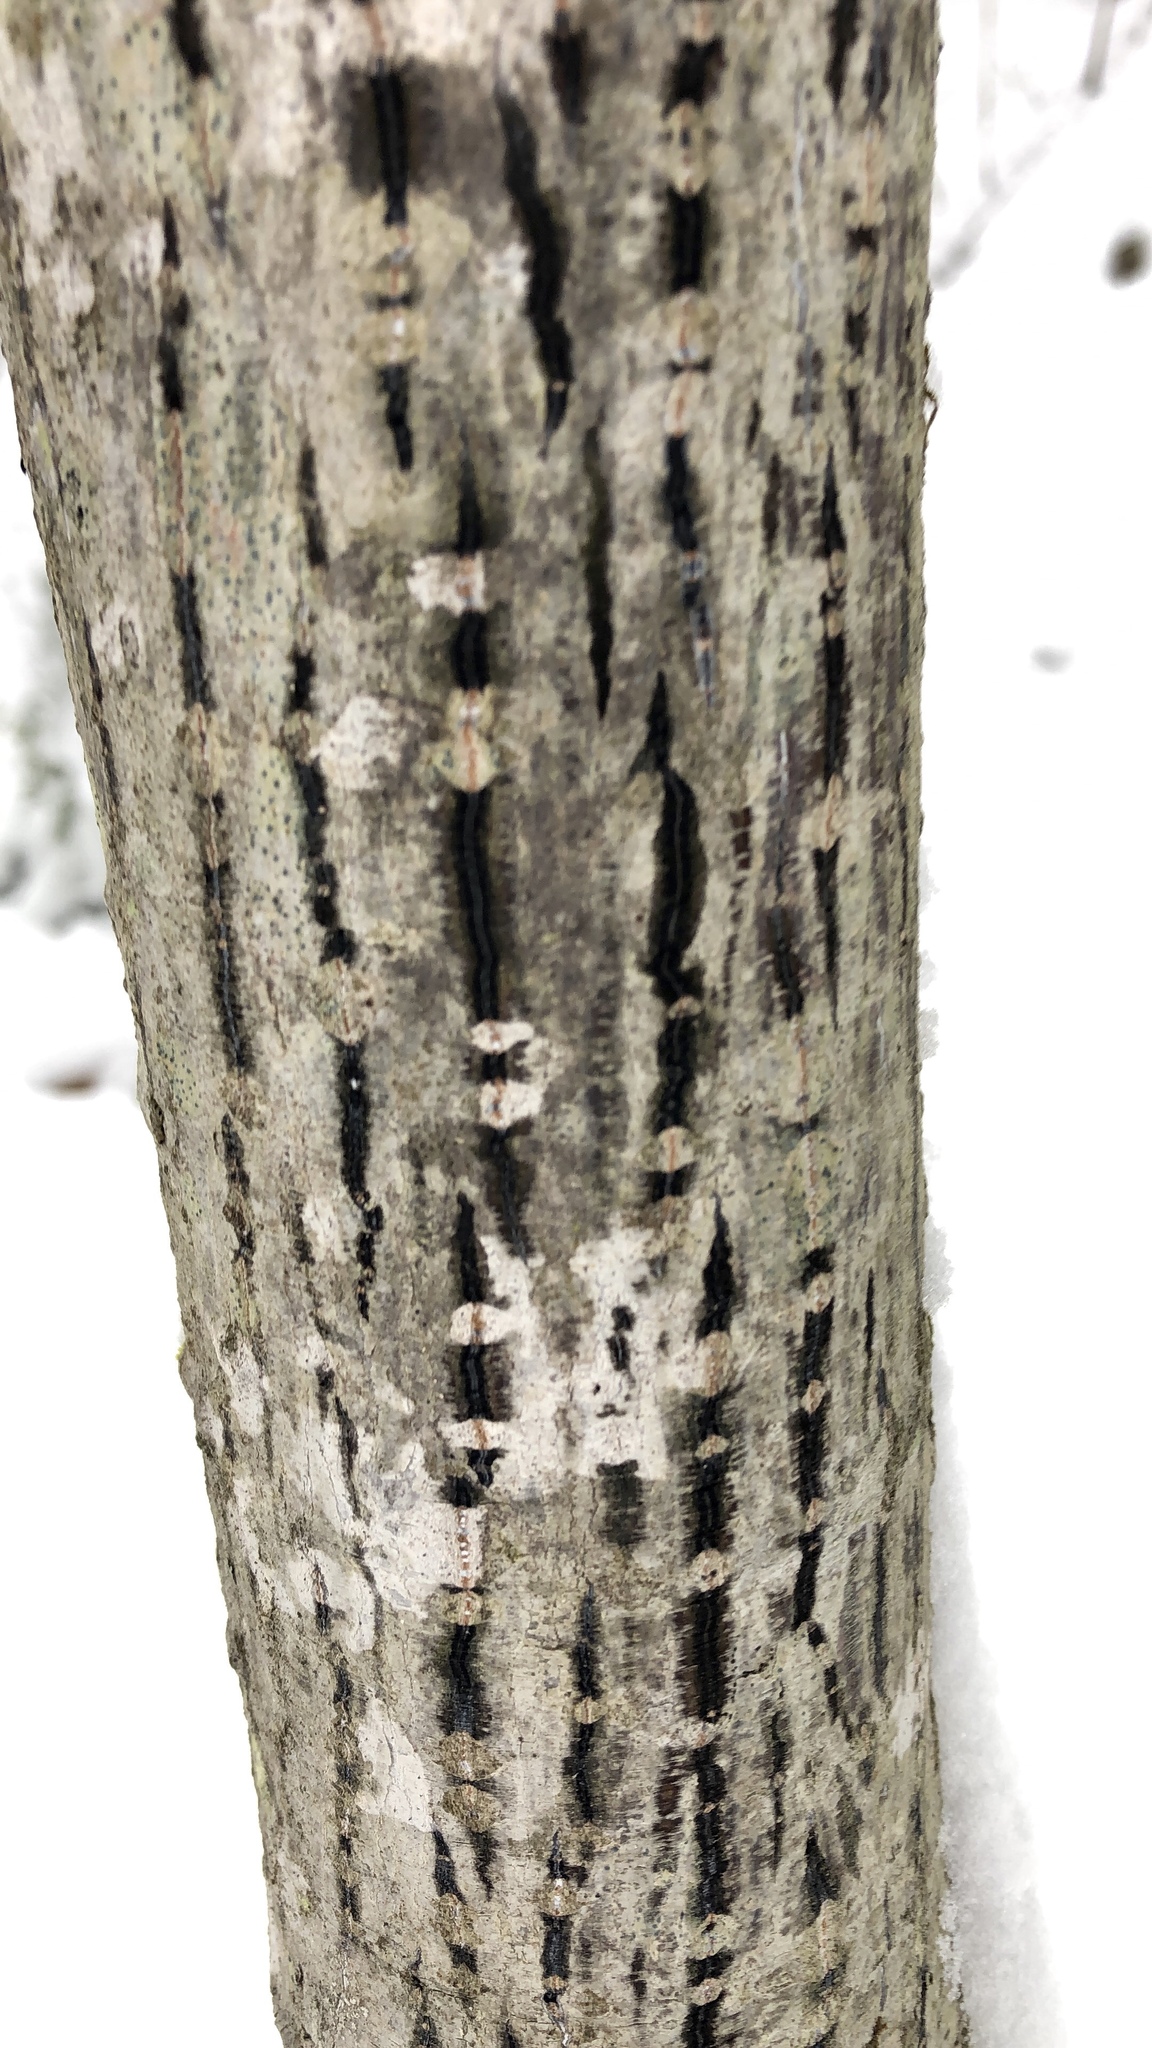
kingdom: Plantae
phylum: Tracheophyta
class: Magnoliopsida
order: Sapindales
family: Sapindaceae
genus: Acer
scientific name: Acer pensylvanicum
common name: Moosewood
